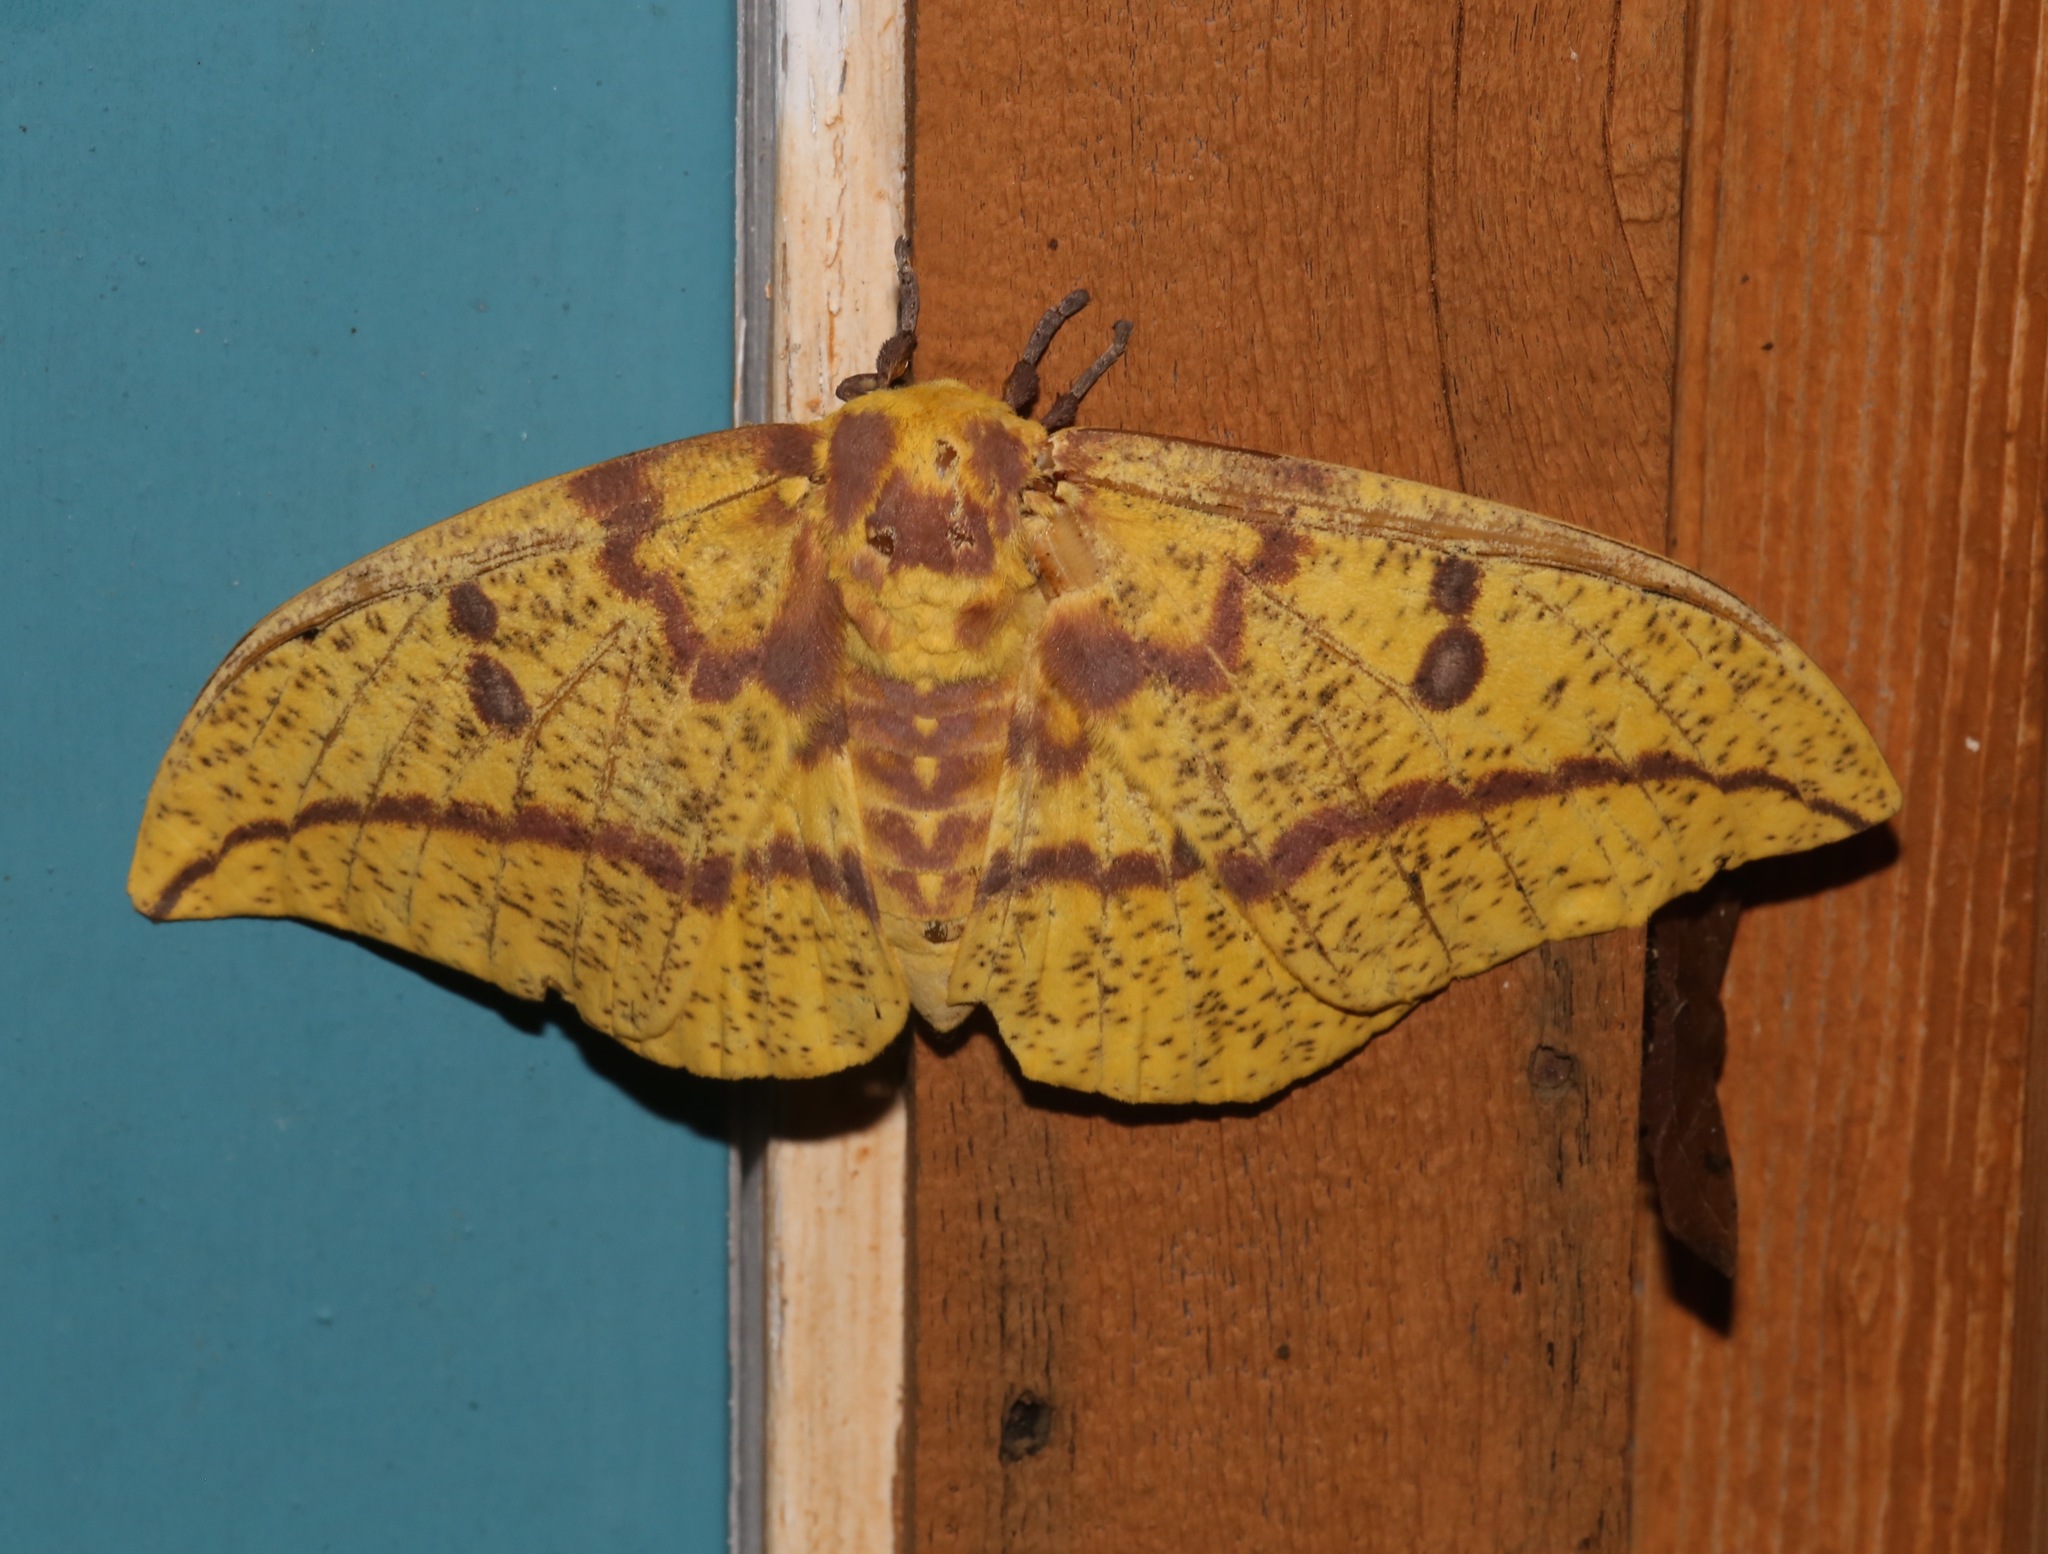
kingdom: Animalia
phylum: Arthropoda
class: Insecta
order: Lepidoptera
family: Saturniidae
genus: Eacles
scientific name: Eacles imperialis
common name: Imperial moth
